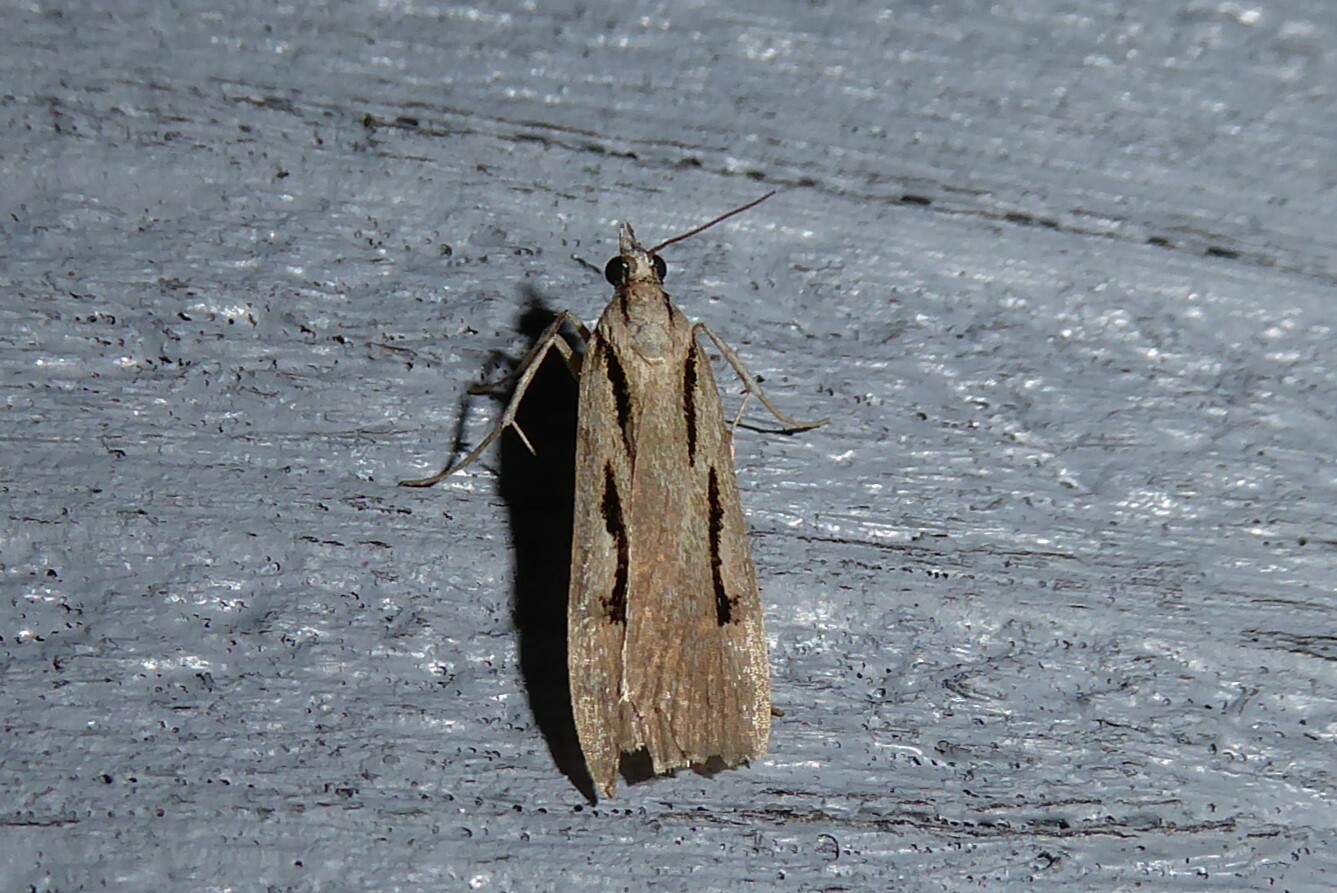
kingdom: Animalia
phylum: Arthropoda
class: Insecta
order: Lepidoptera
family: Crambidae
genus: Scoparia
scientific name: Scoparia rotuellus
